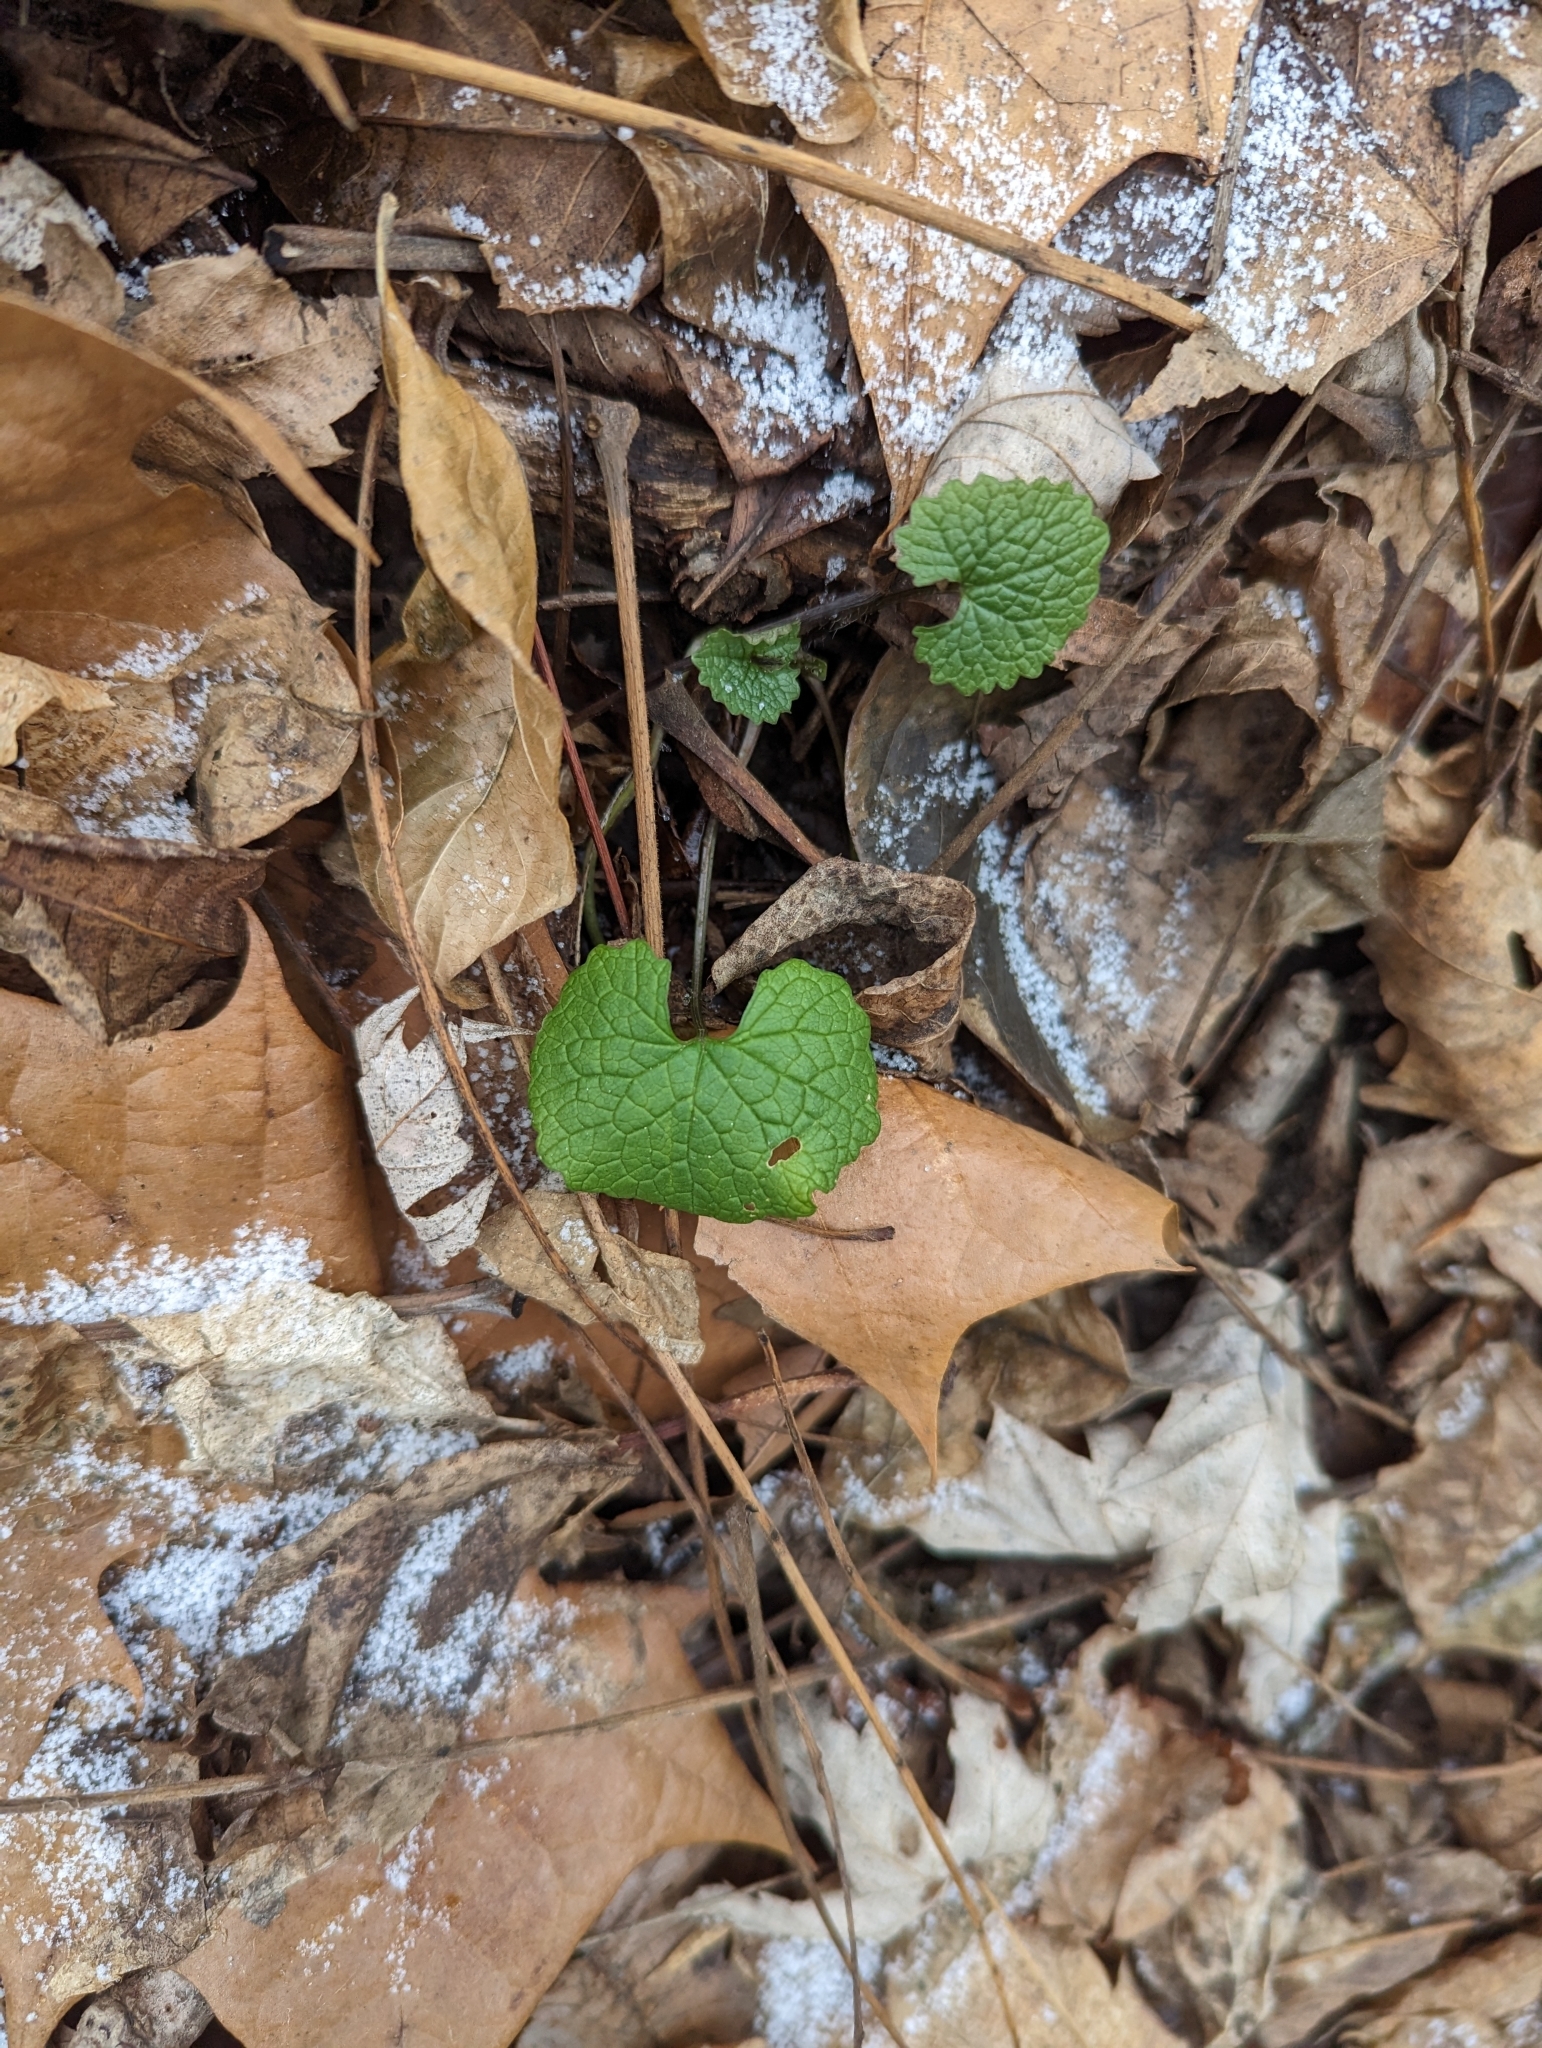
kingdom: Plantae
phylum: Tracheophyta
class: Magnoliopsida
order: Brassicales
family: Brassicaceae
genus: Alliaria
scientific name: Alliaria petiolata
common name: Garlic mustard
